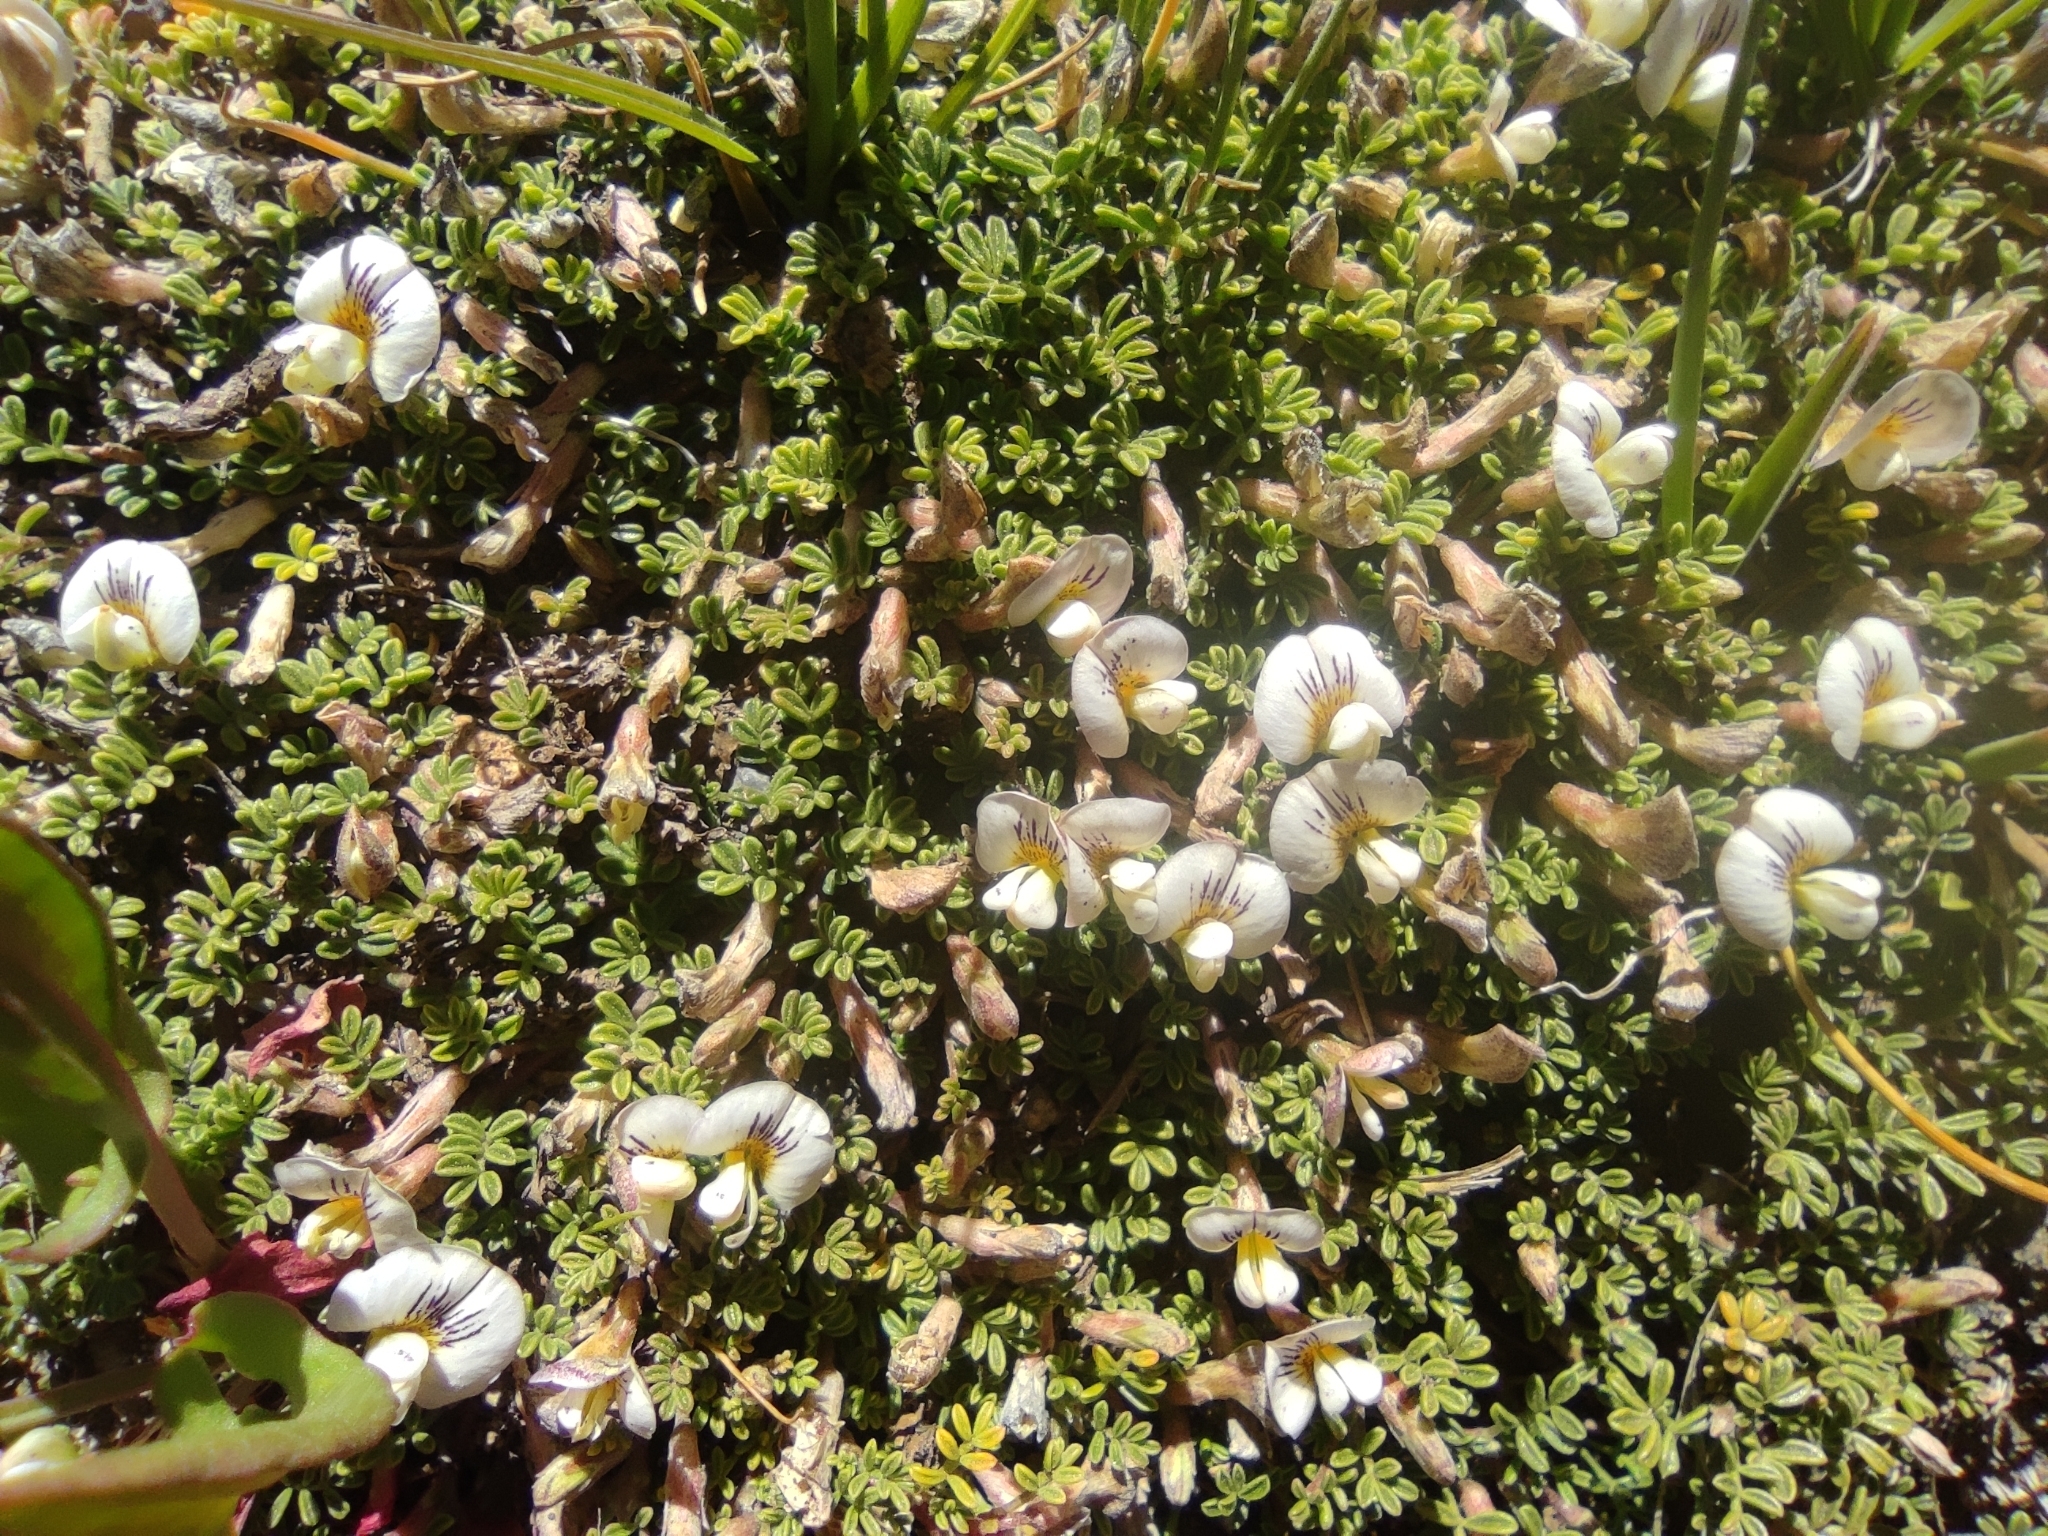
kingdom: Plantae
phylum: Tracheophyta
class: Magnoliopsida
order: Fabales
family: Fabaceae
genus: Adesmia
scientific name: Adesmia parvifolia
